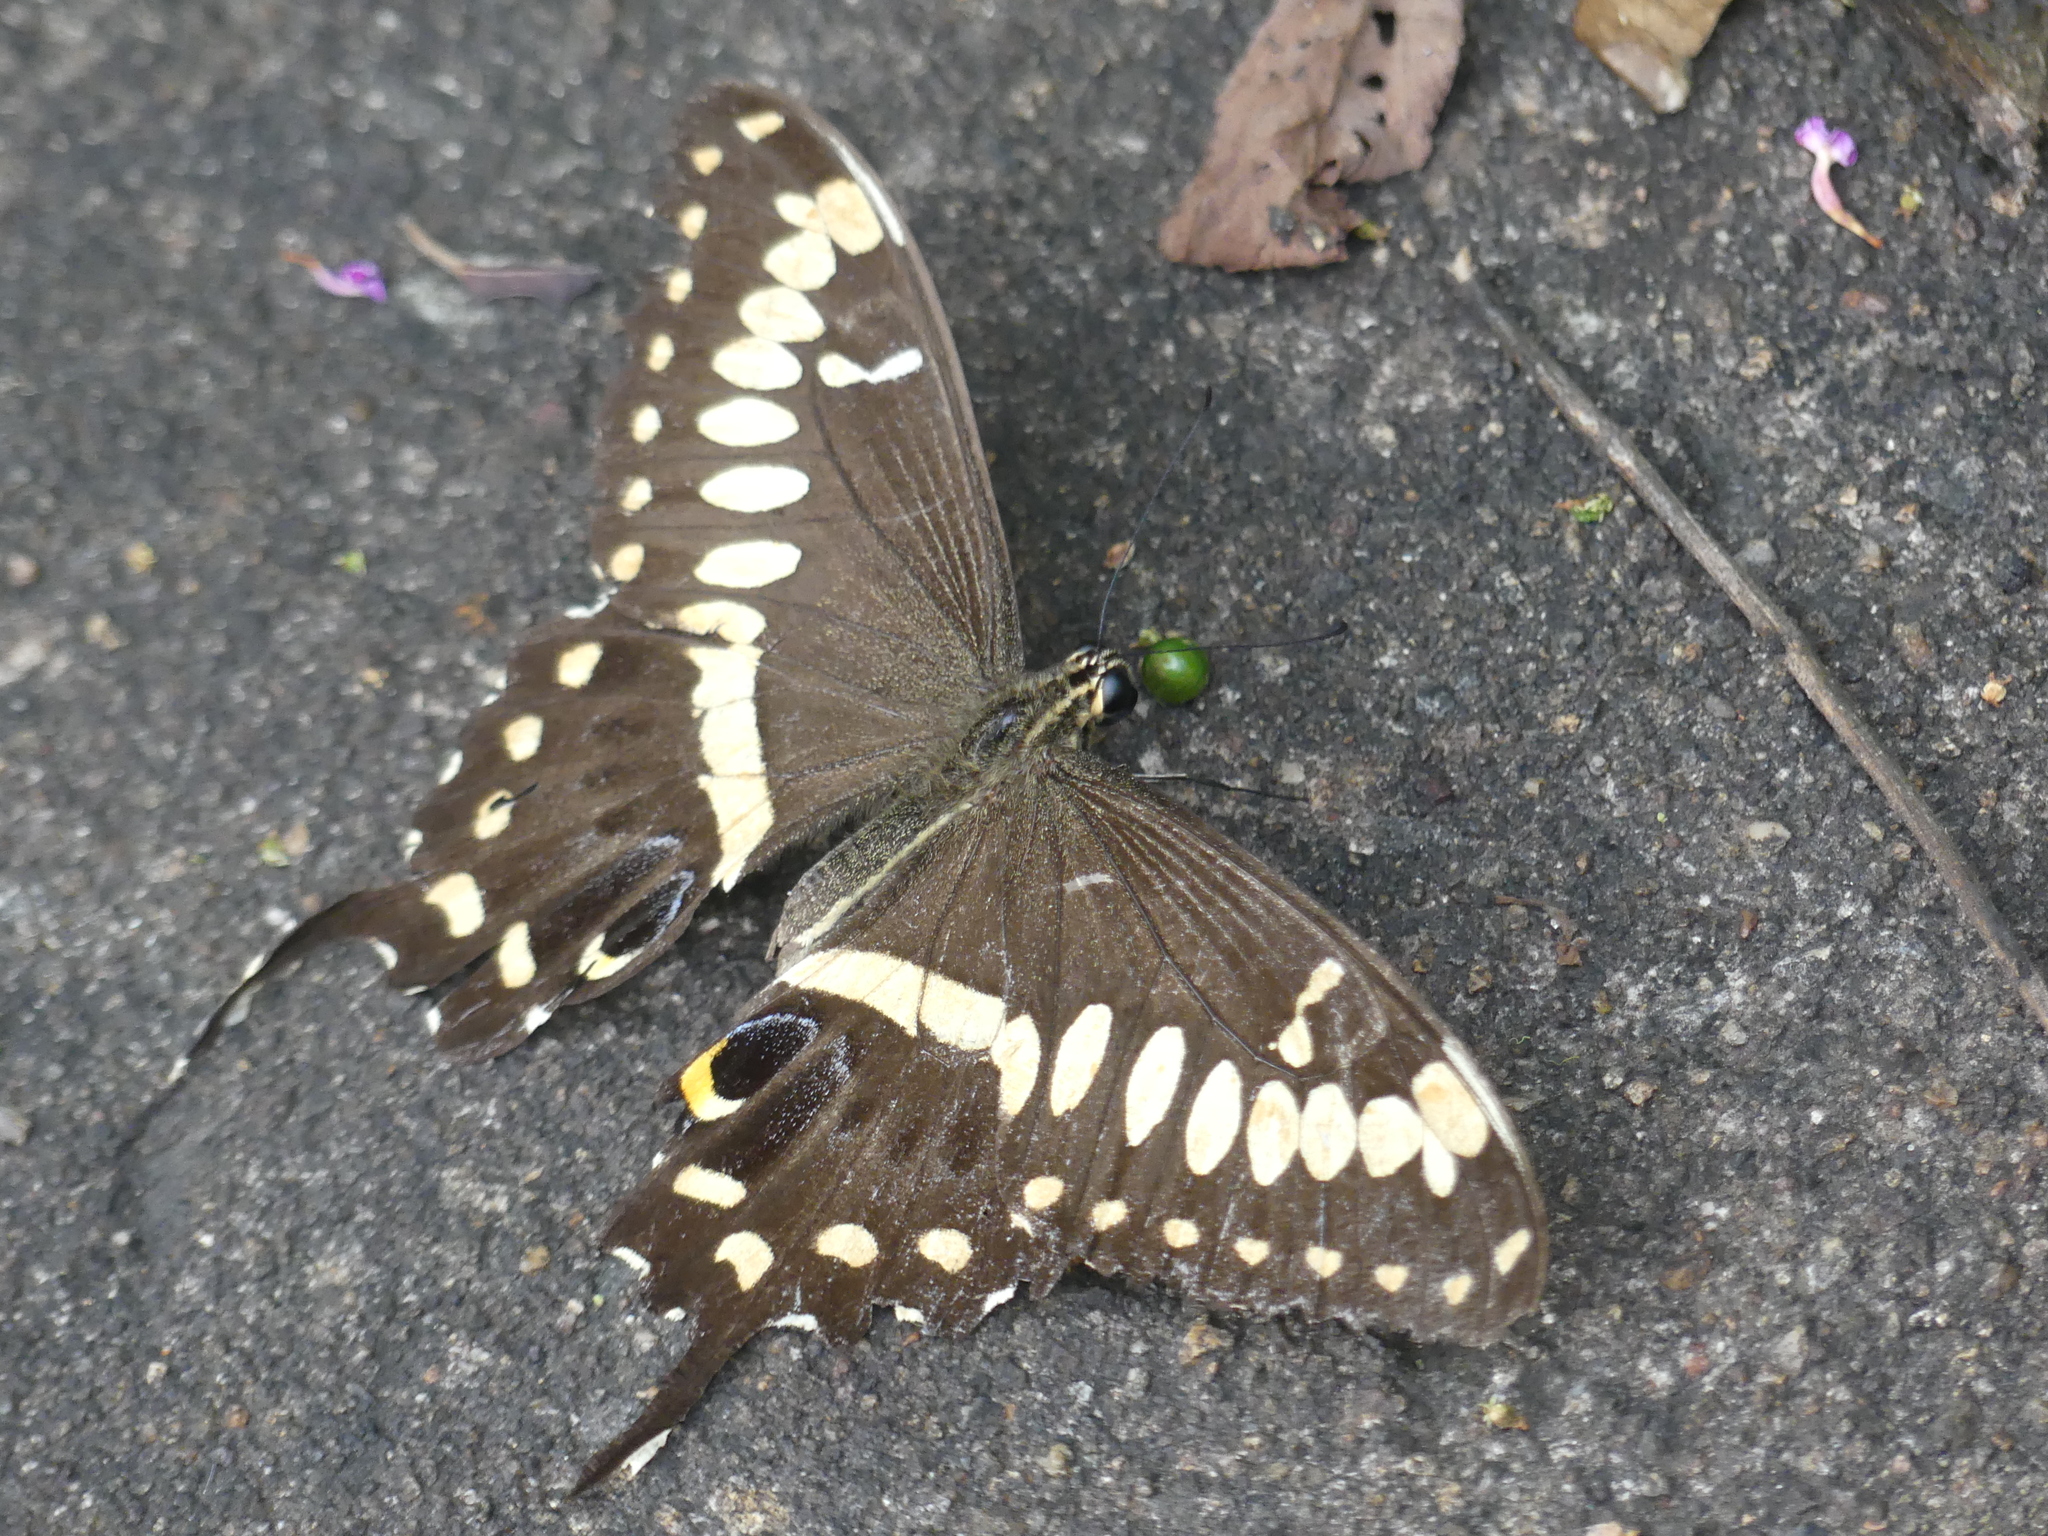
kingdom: Animalia
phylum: Arthropoda
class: Insecta
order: Lepidoptera
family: Papilionidae
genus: Papilio
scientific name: Papilio ophidicephalus
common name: Emperor swallowtail
